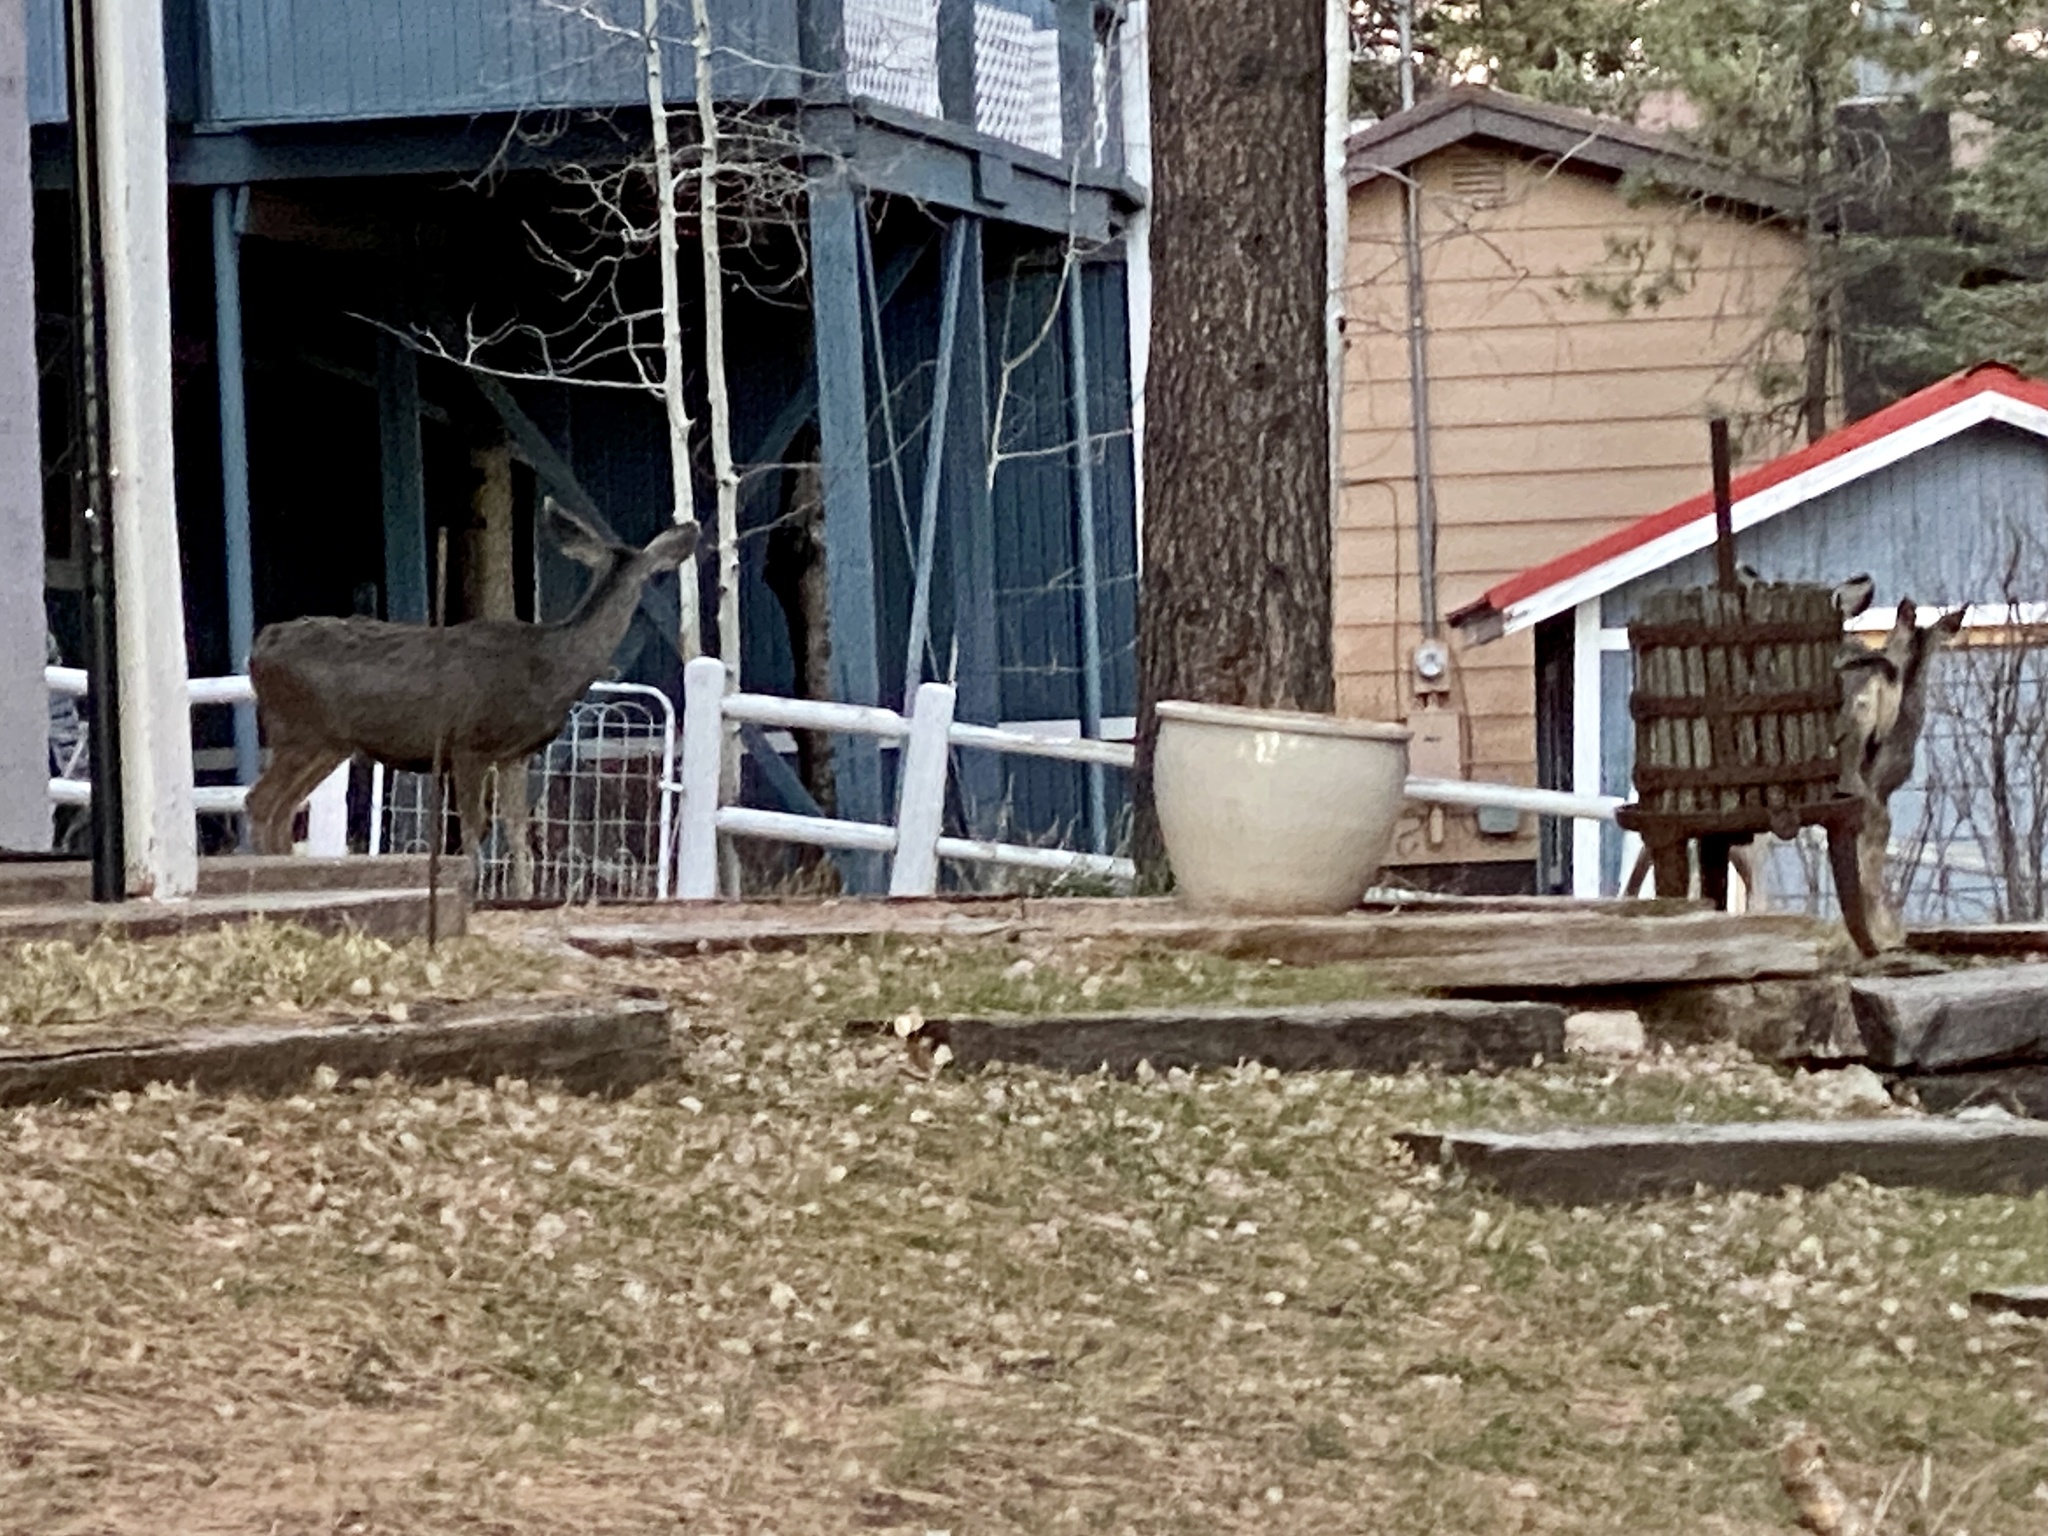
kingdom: Animalia
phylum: Chordata
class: Mammalia
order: Artiodactyla
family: Cervidae
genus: Odocoileus
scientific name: Odocoileus hemionus
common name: Mule deer
